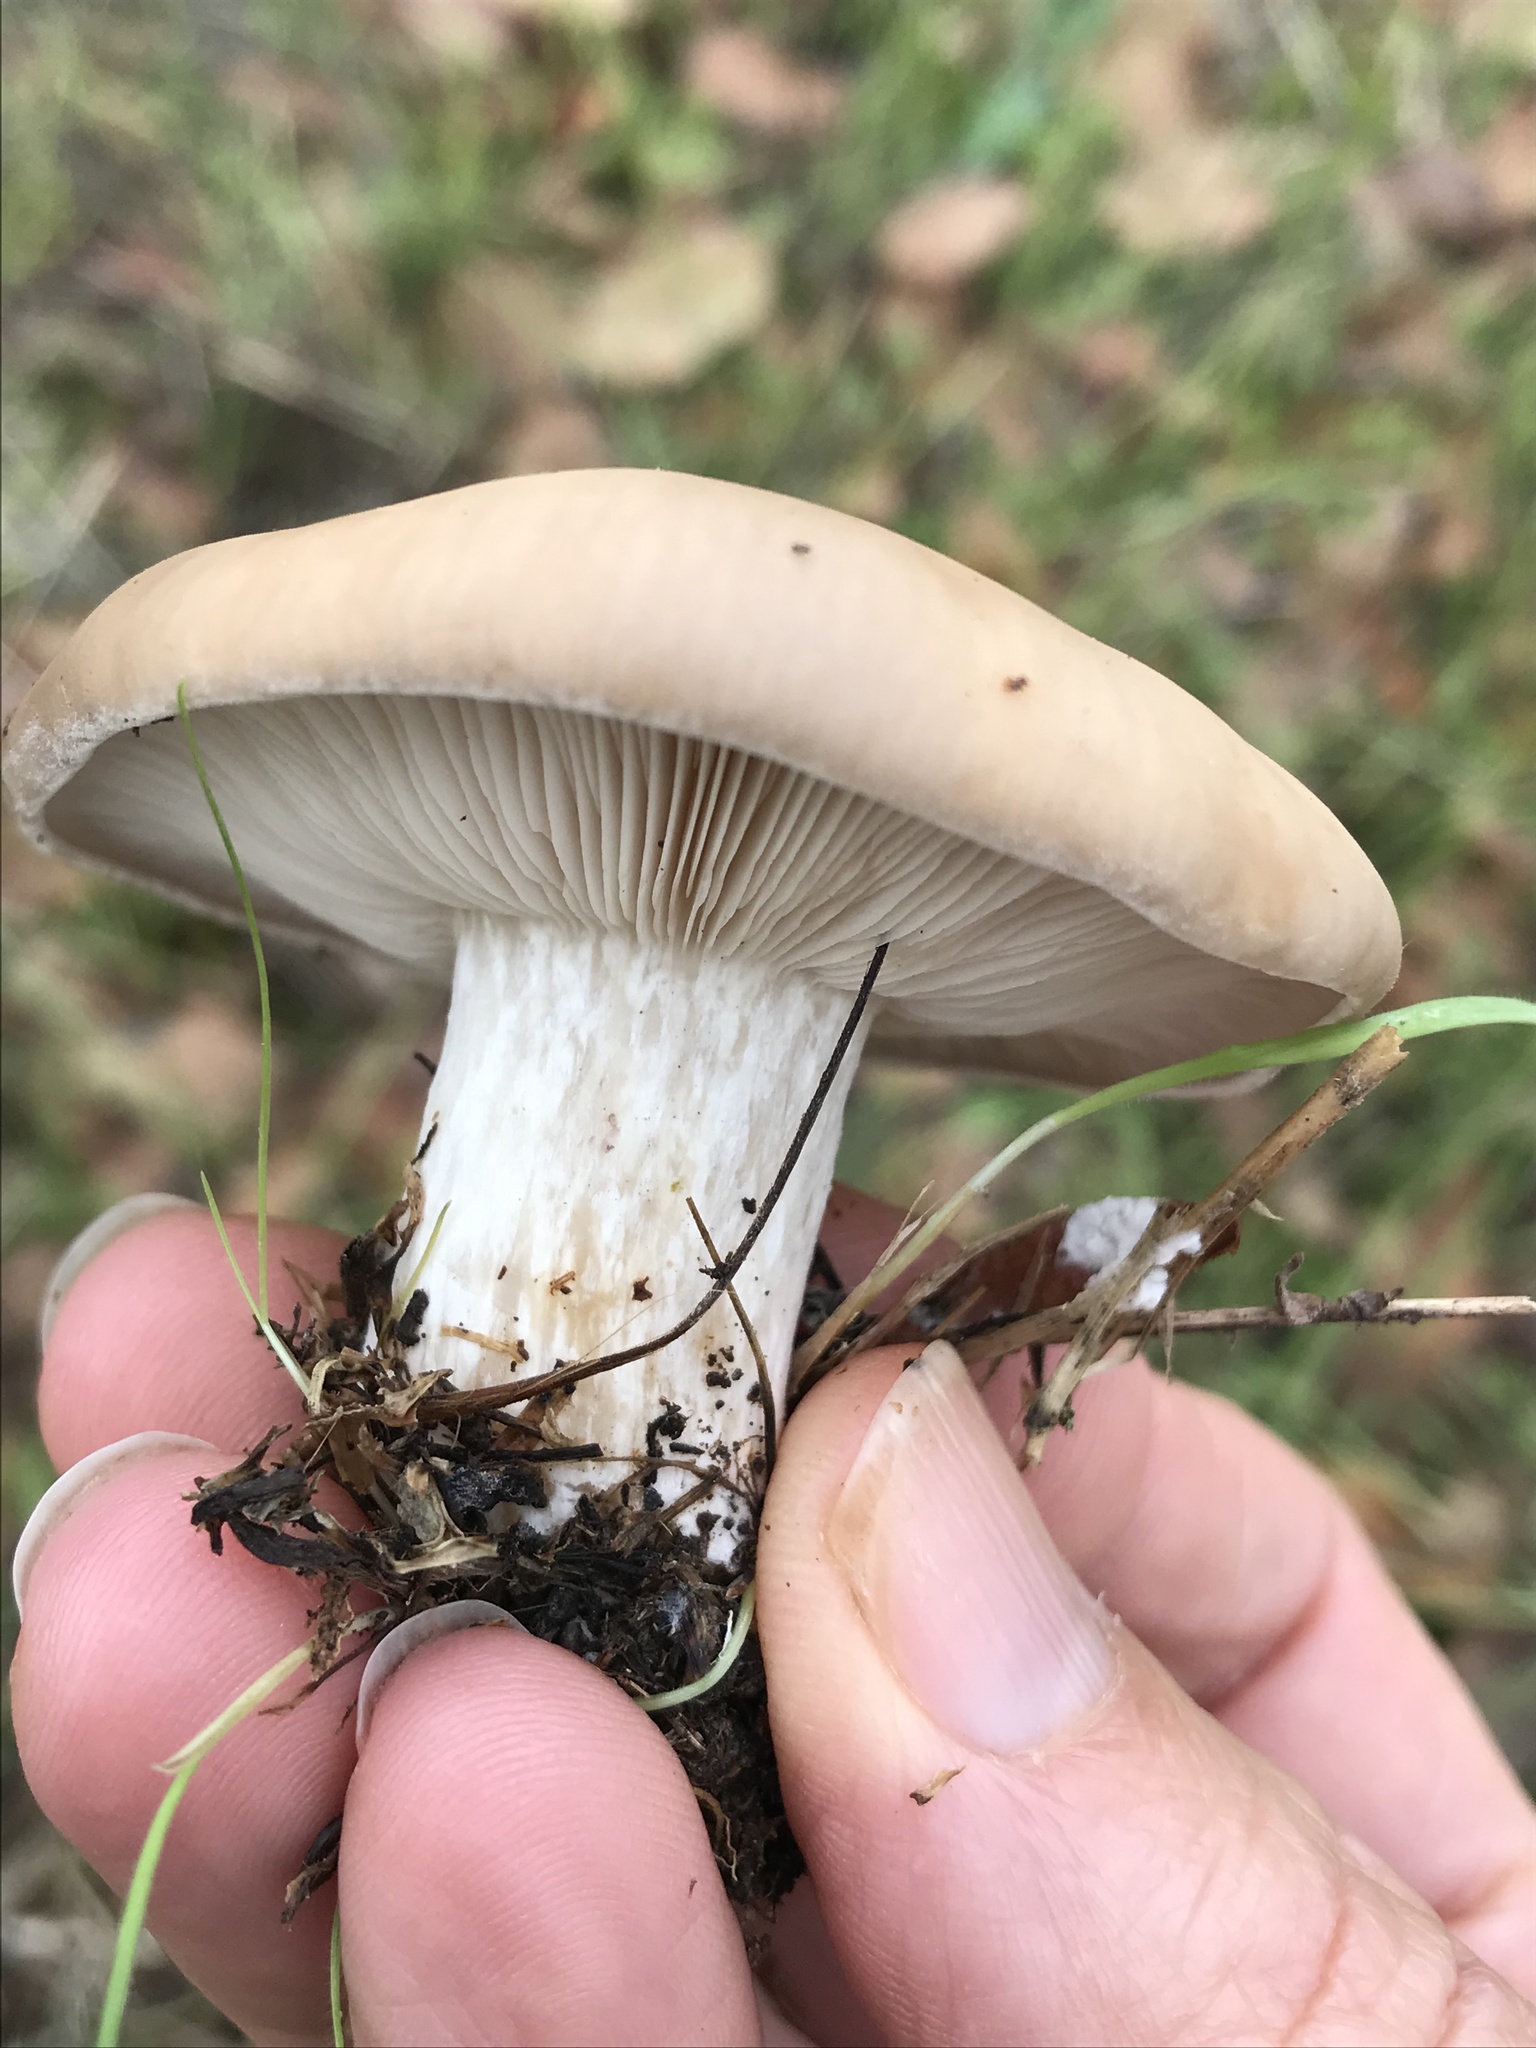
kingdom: Fungi
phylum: Basidiomycota
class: Agaricomycetes
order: Agaricales
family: Tricholomataceae
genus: Collybia
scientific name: Collybia
